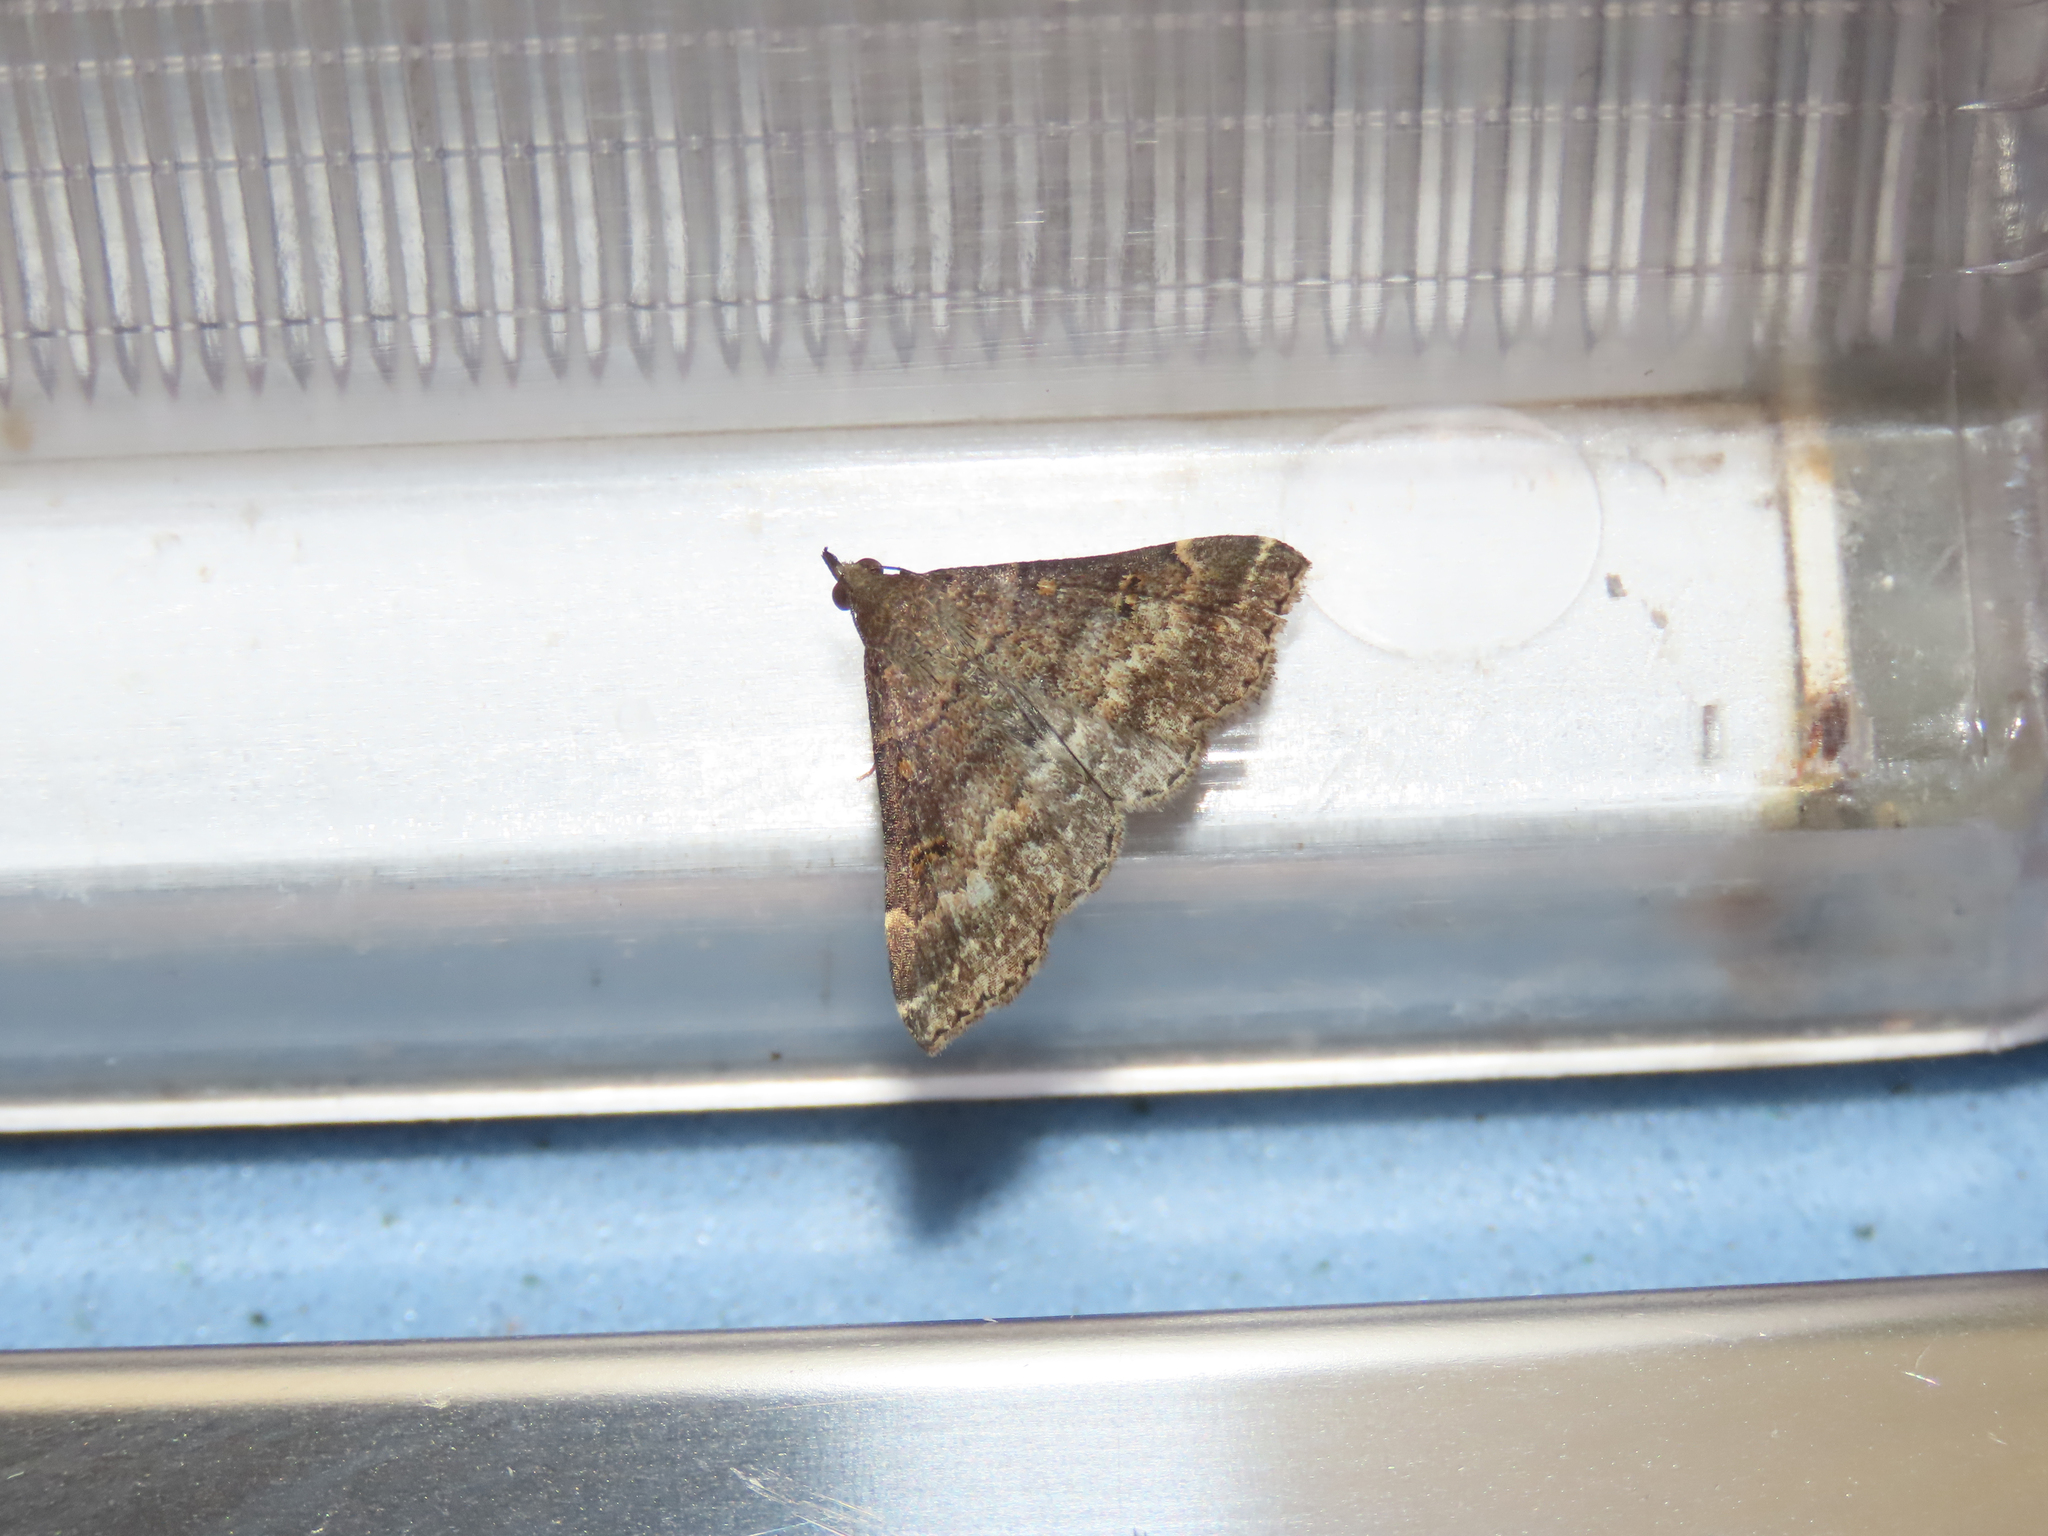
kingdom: Animalia
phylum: Arthropoda
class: Insecta
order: Lepidoptera
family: Erebidae
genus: Renia
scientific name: Renia factiosalis
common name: Sociable renia moth
